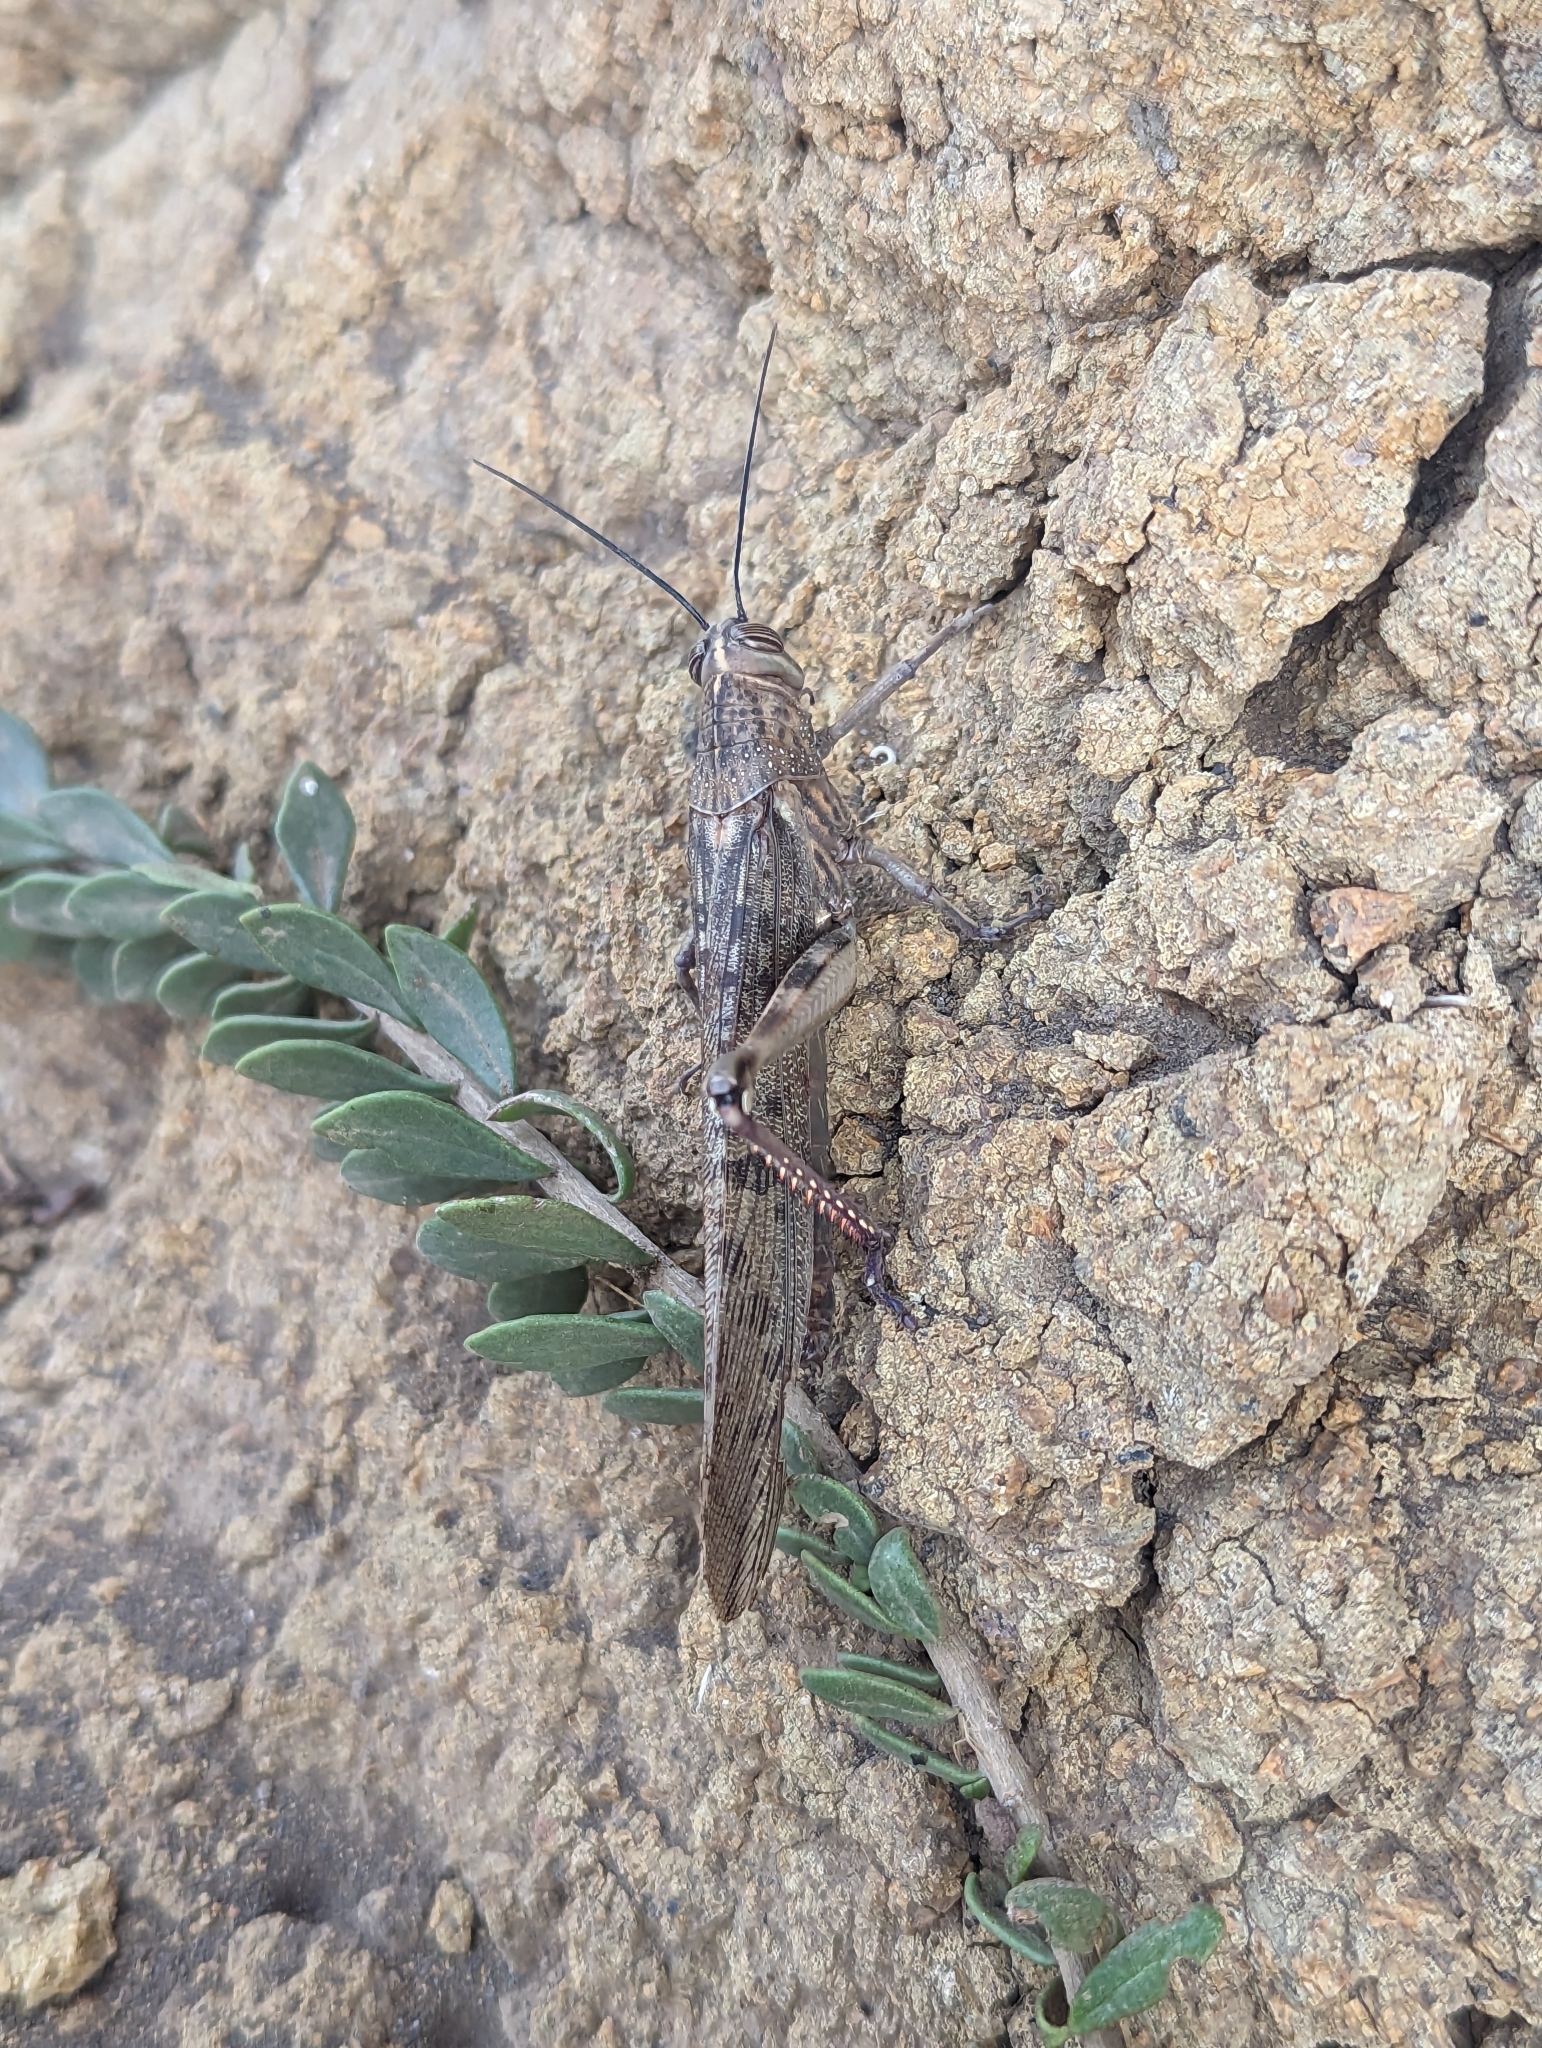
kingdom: Animalia
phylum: Arthropoda
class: Insecta
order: Orthoptera
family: Acrididae
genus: Anacridium
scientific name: Anacridium melanorhodon
